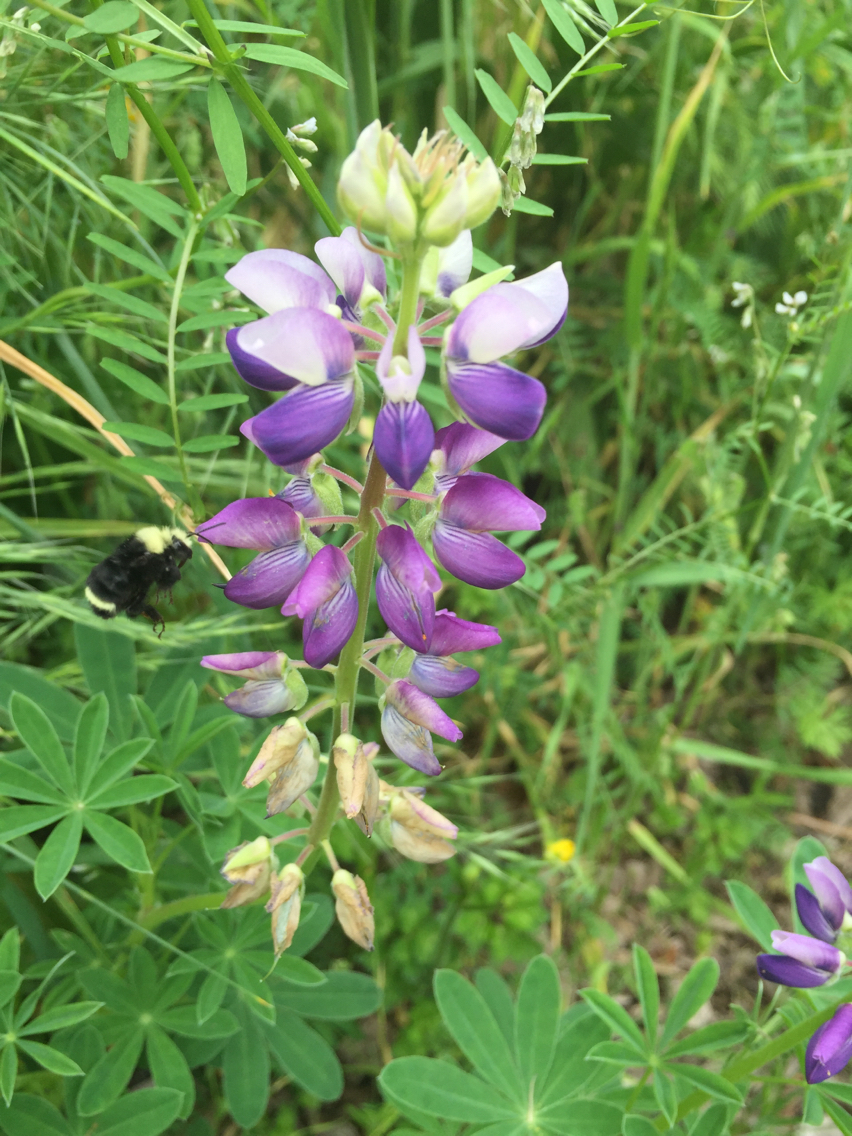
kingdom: Animalia
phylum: Arthropoda
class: Insecta
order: Hymenoptera
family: Apidae
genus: Bombus
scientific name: Bombus vosnesenskii
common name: Vosnesensky bumble bee
